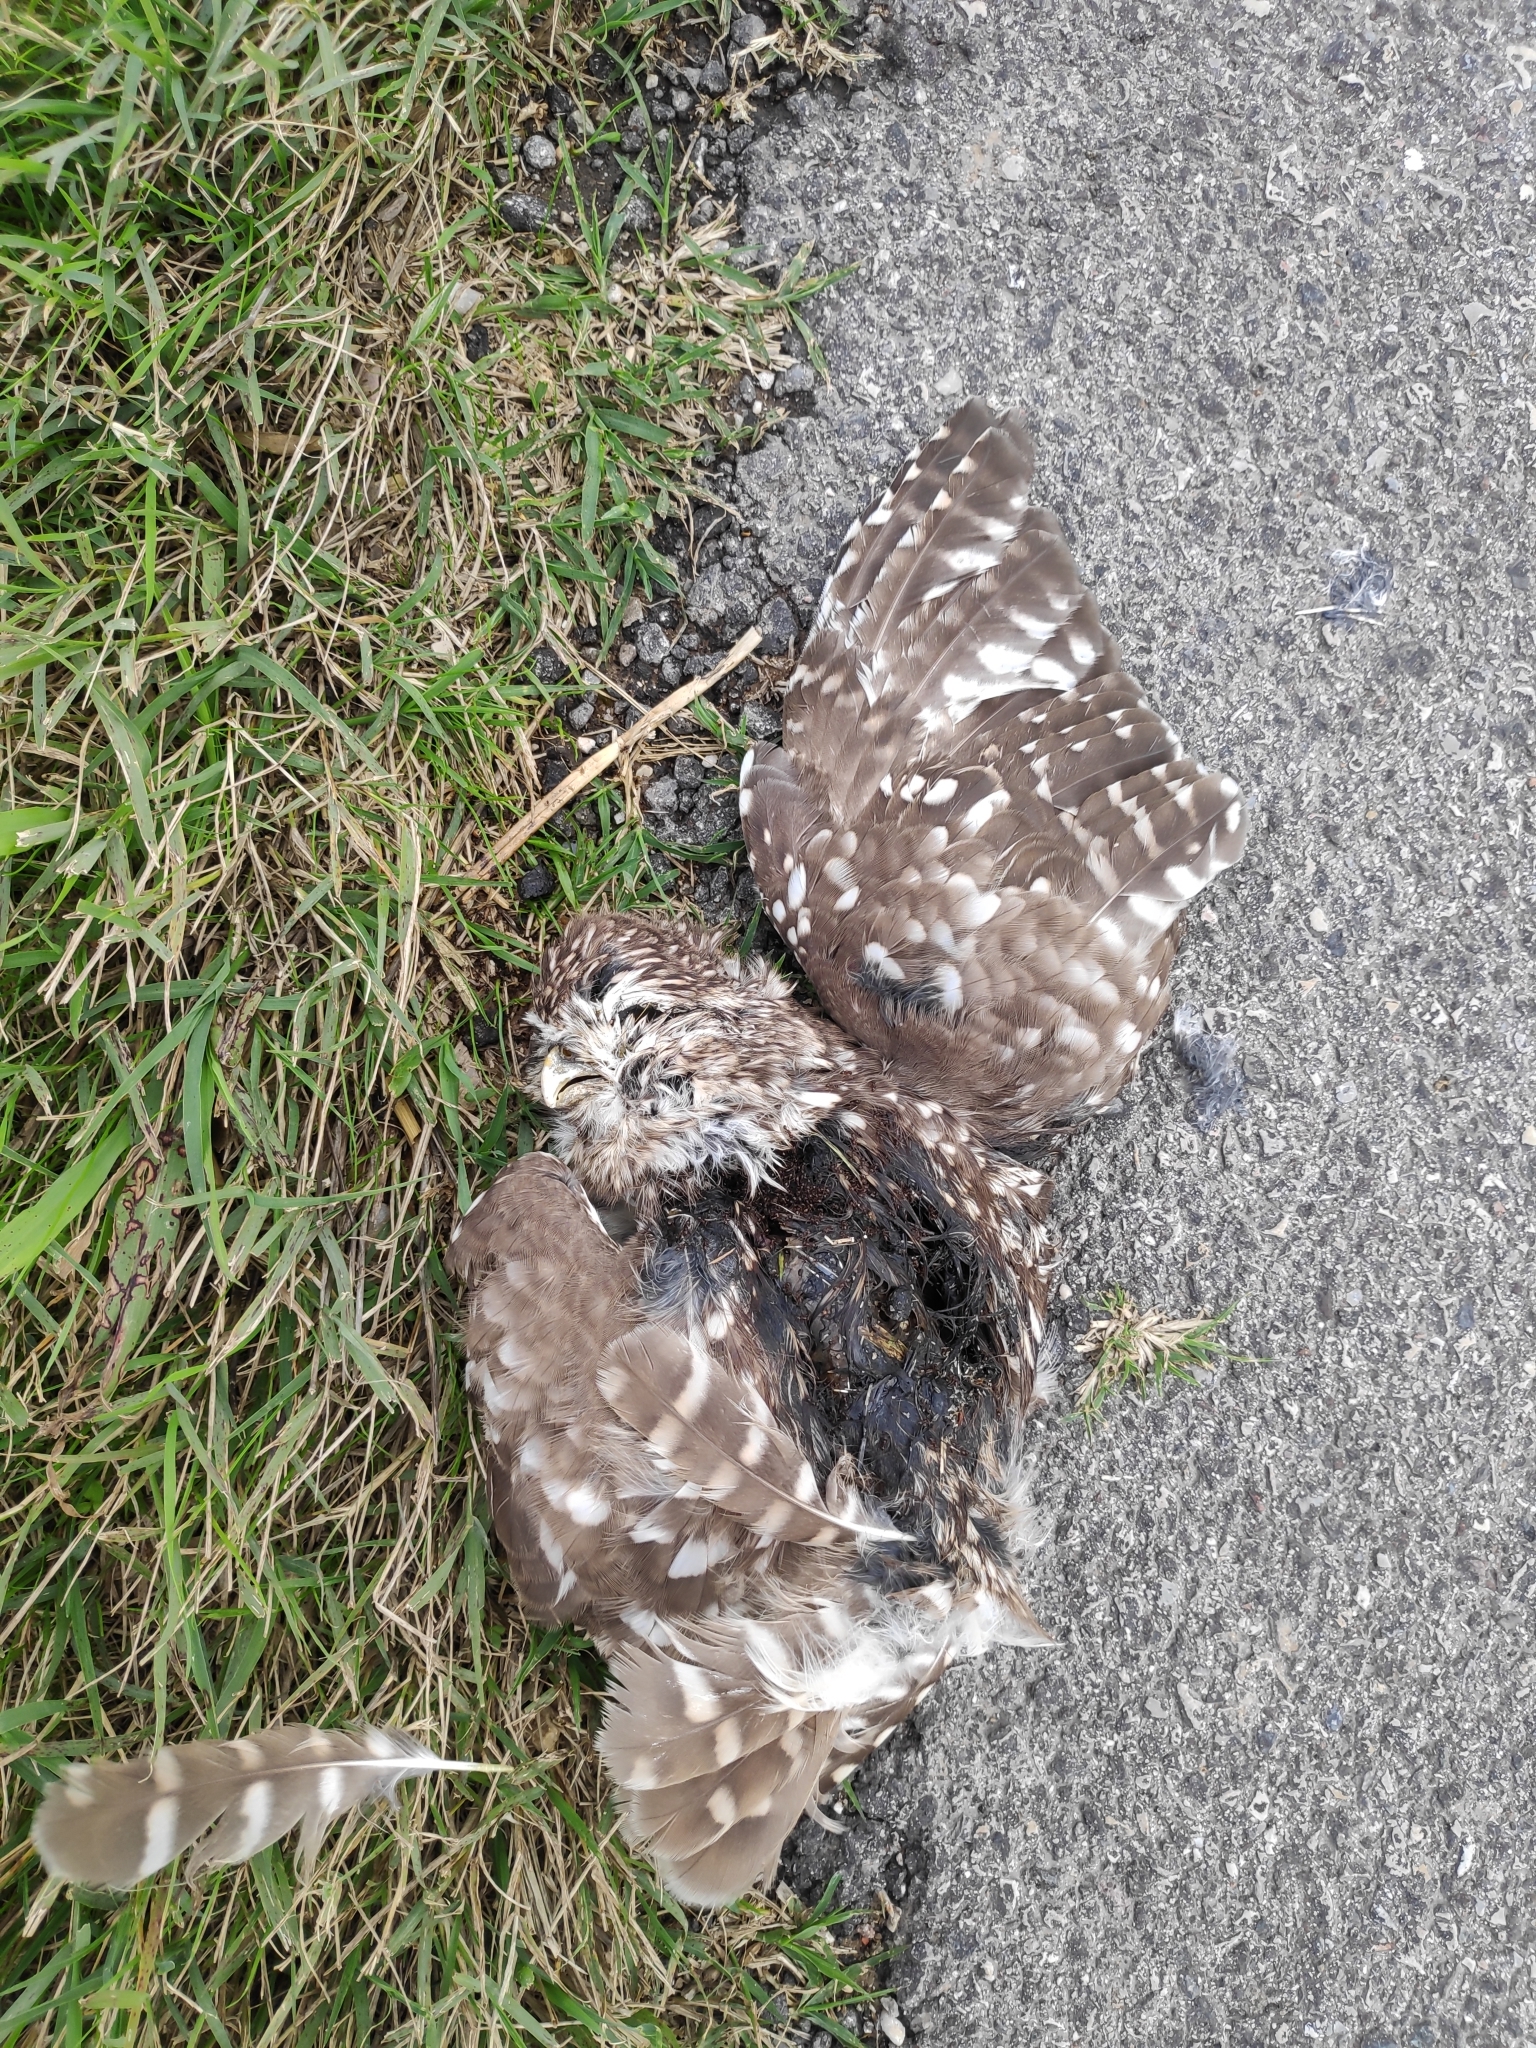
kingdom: Animalia
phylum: Chordata
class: Aves
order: Strigiformes
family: Strigidae
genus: Athene
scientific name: Athene noctua
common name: Little owl
